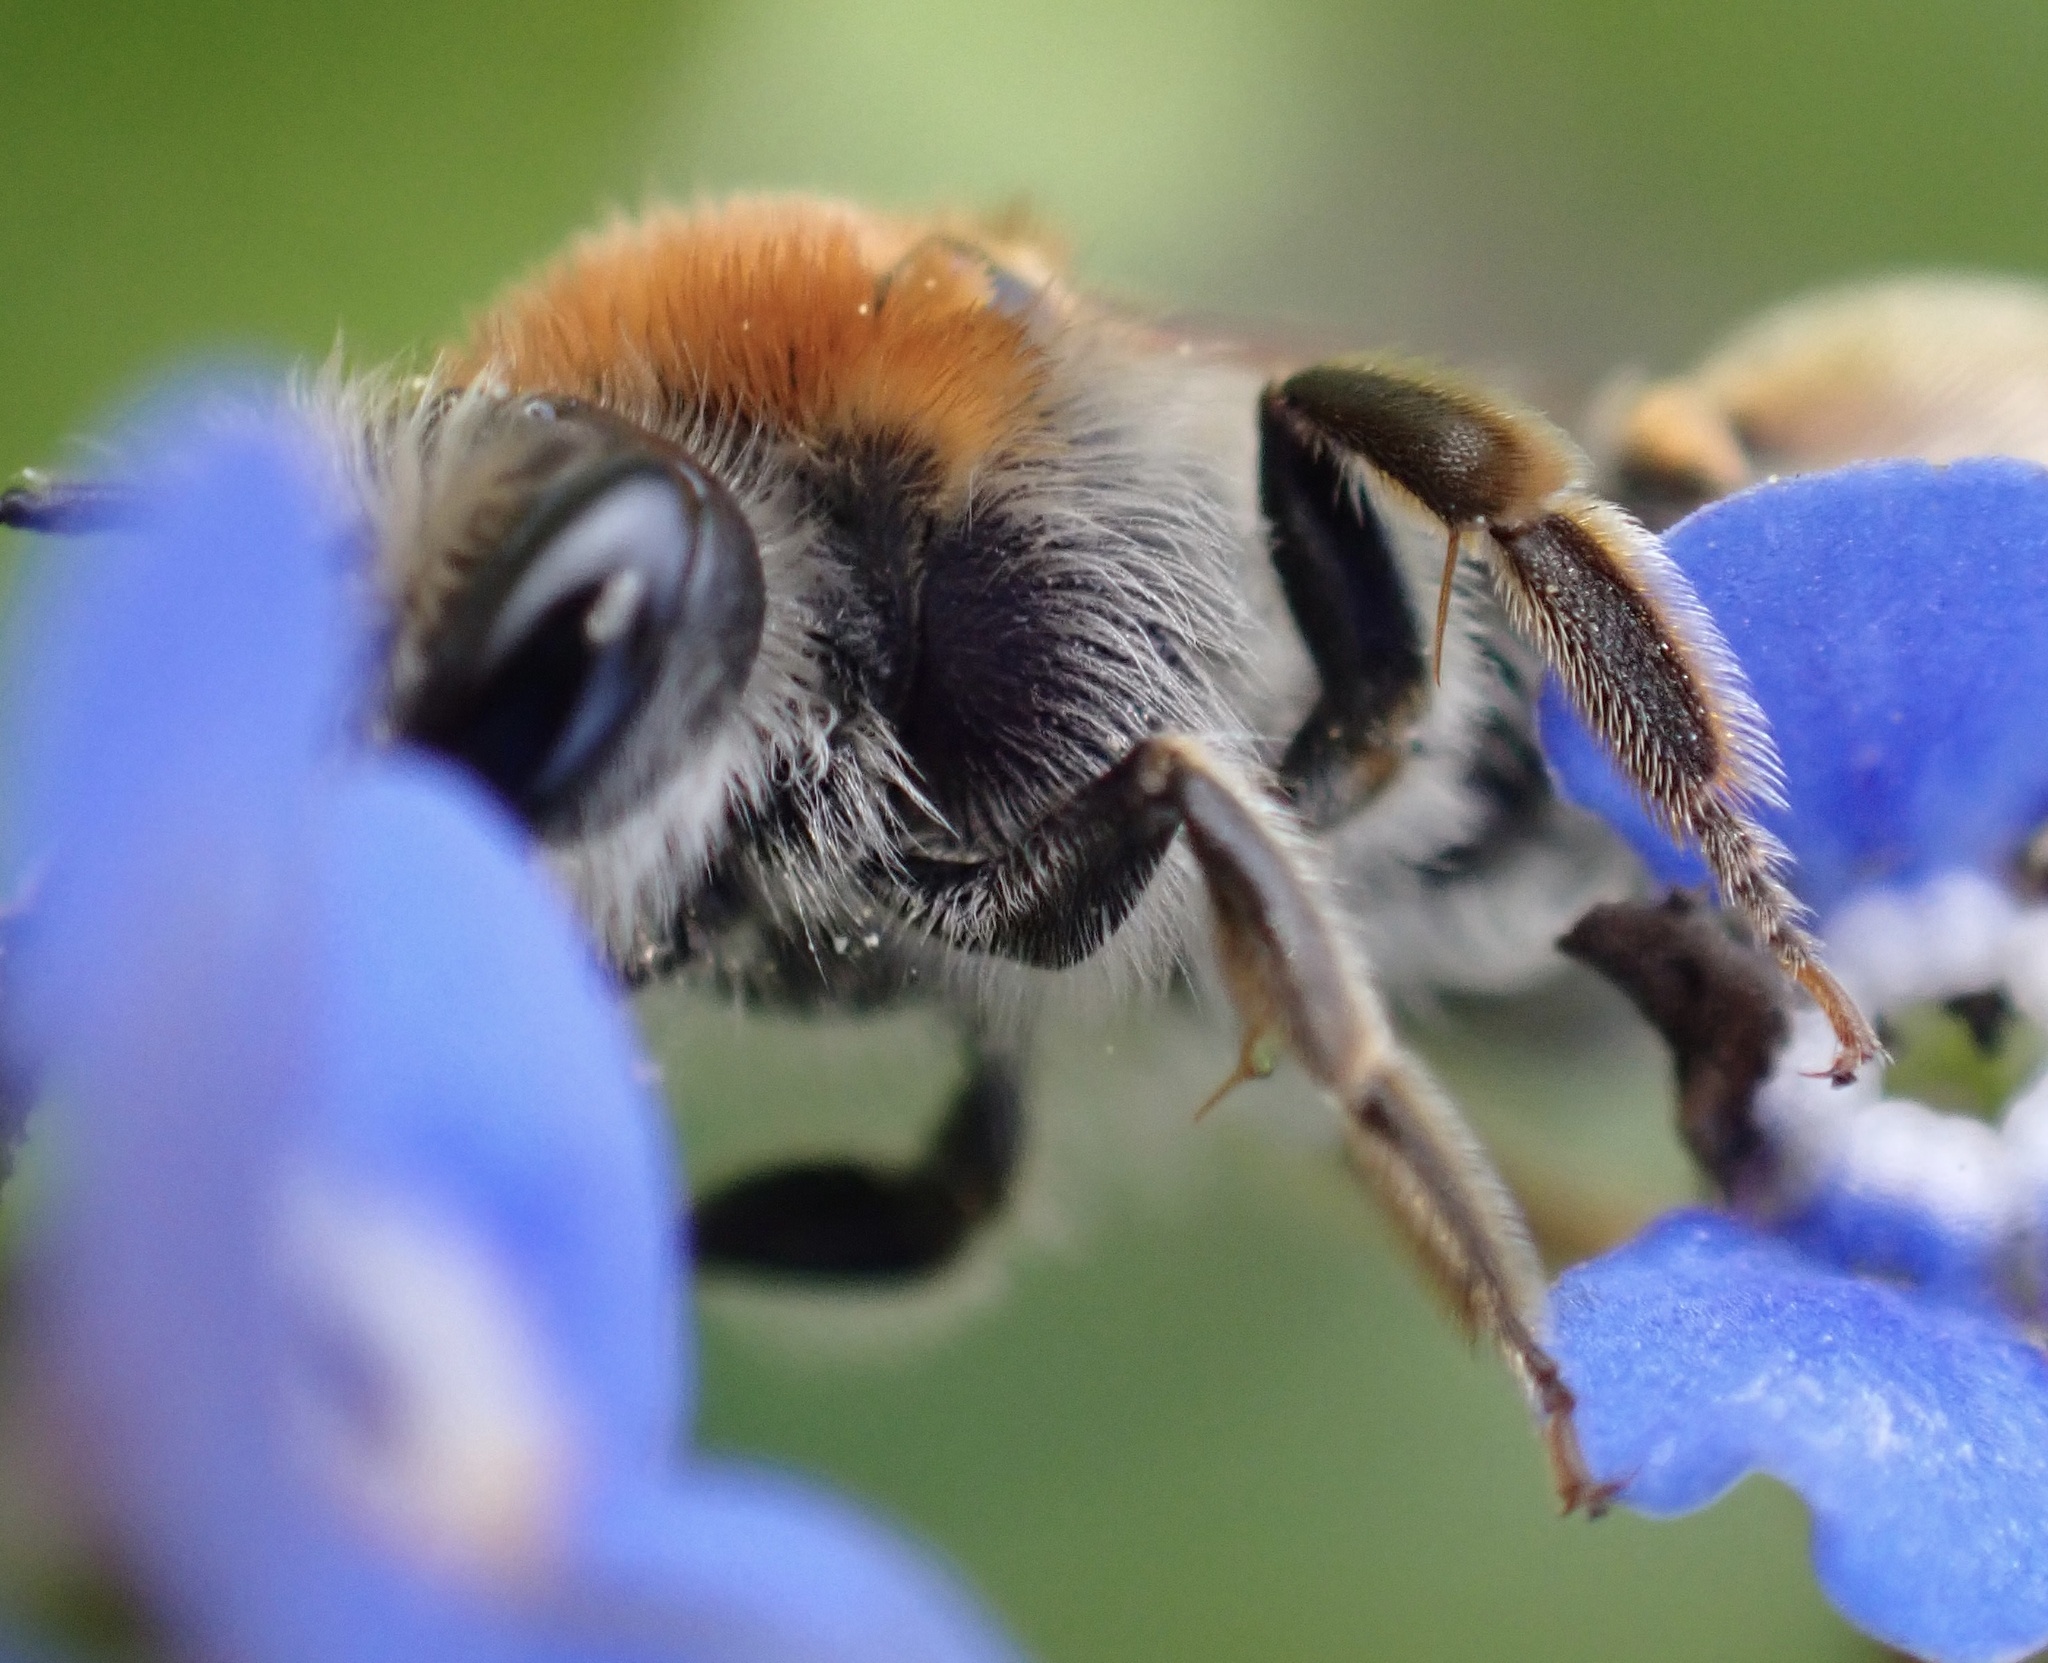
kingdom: Animalia
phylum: Arthropoda
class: Insecta
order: Hymenoptera
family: Andrenidae
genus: Andrena
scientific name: Andrena haemorrhoa
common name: Early mining bee
